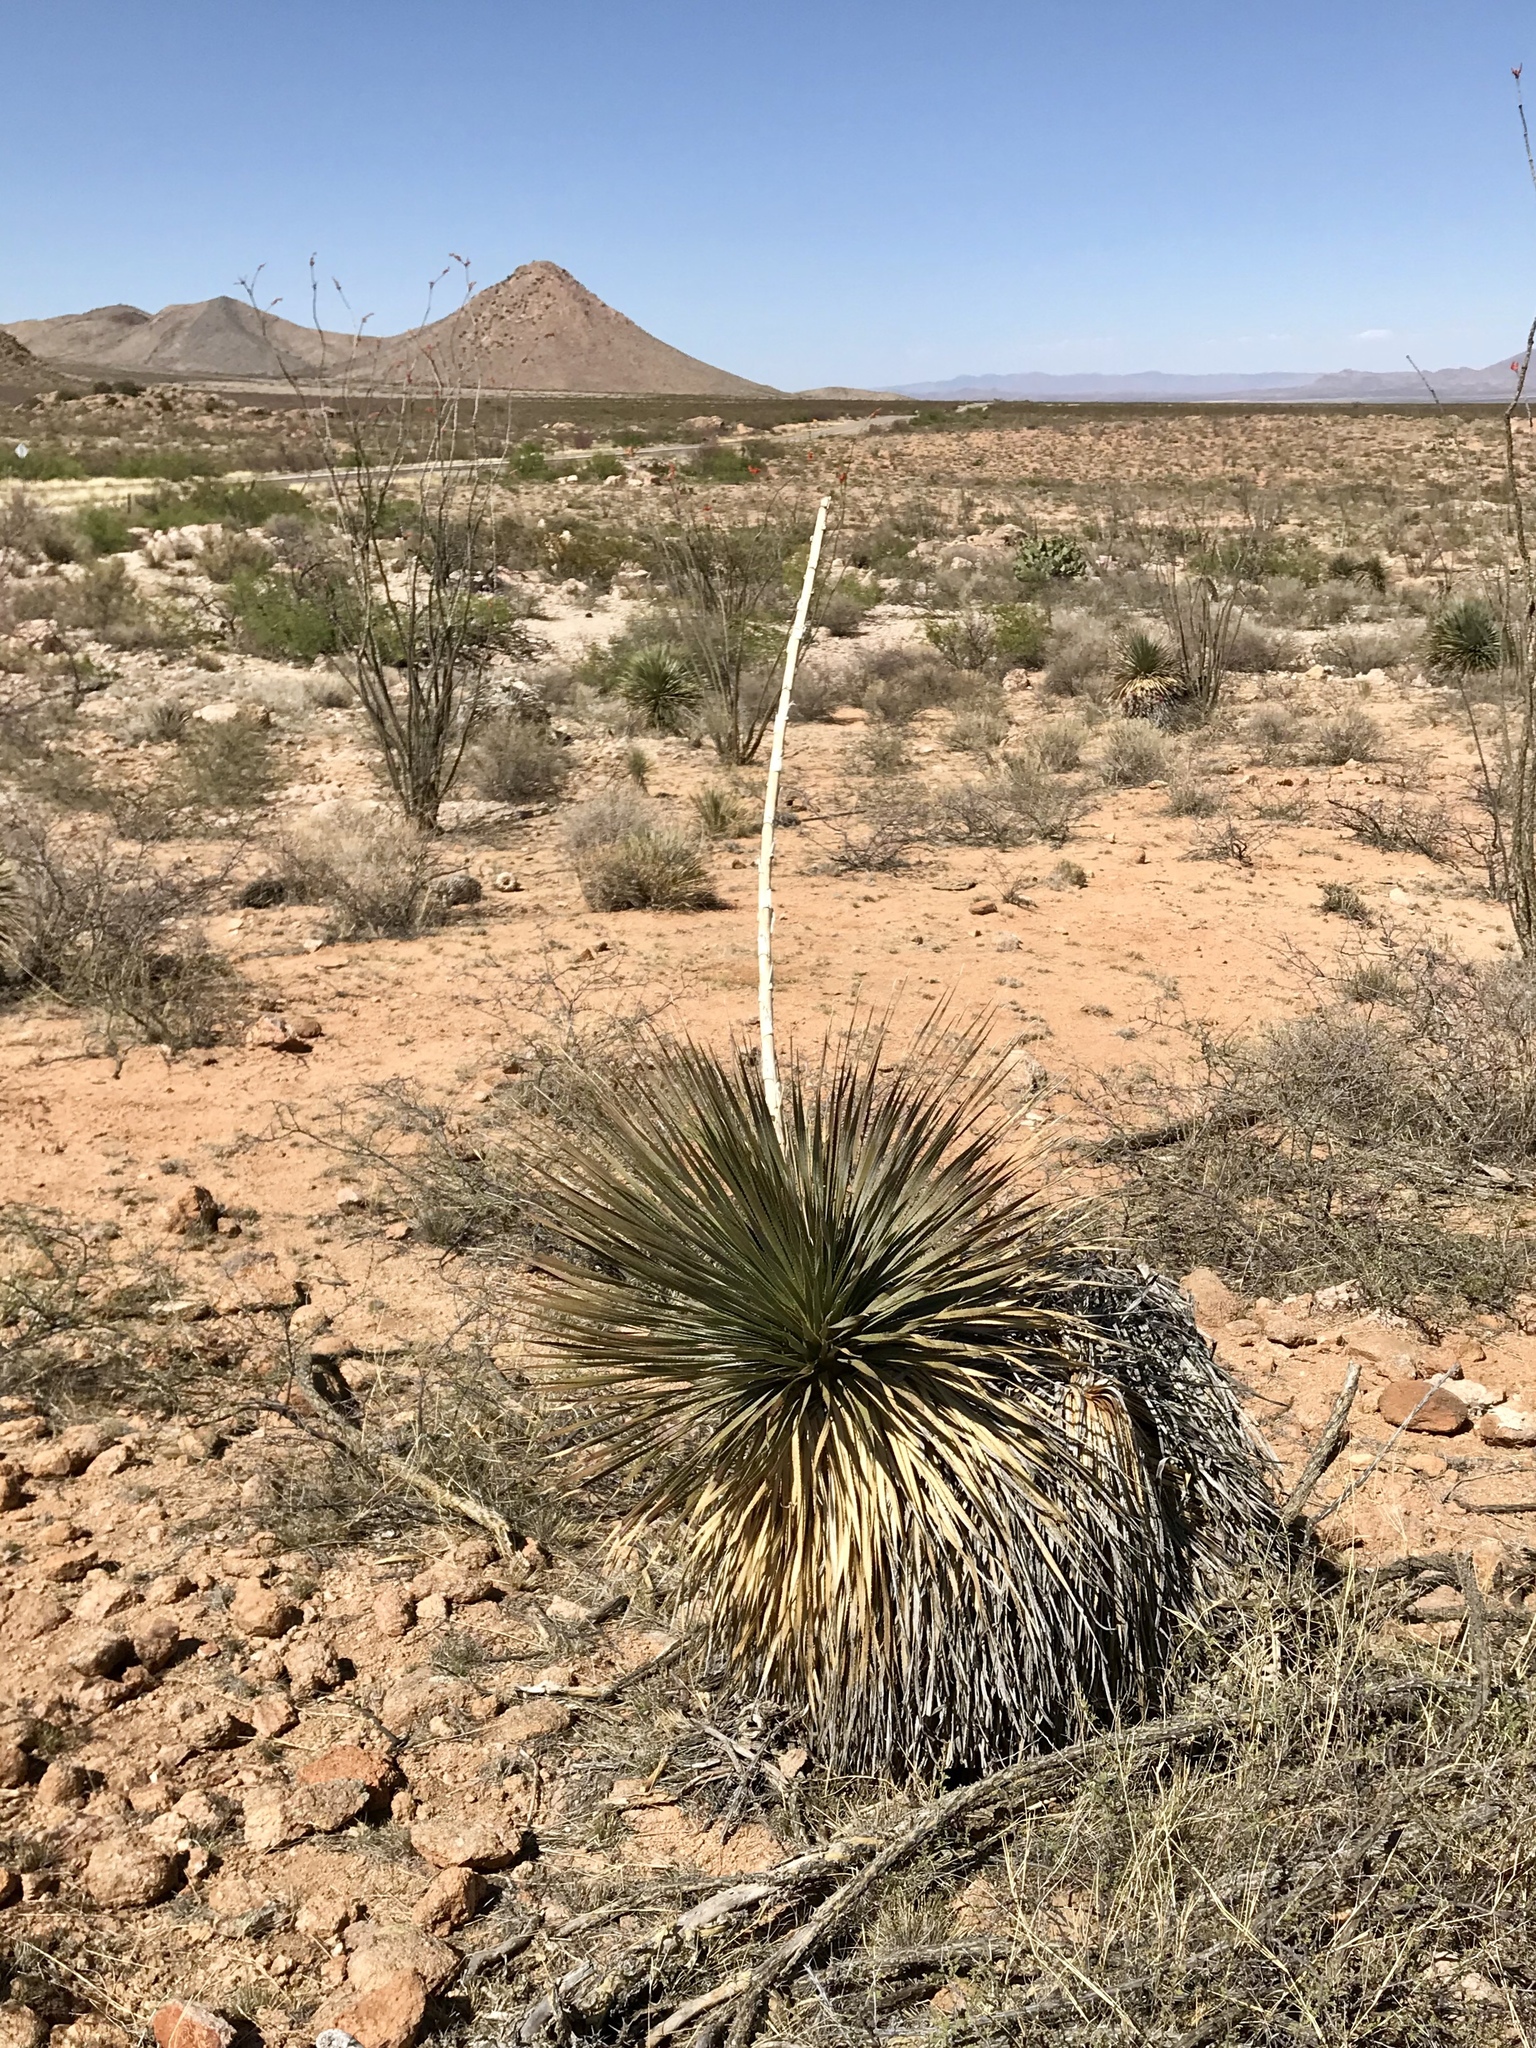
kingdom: Plantae
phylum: Tracheophyta
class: Liliopsida
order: Asparagales
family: Asparagaceae
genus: Dasylirion
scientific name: Dasylirion wheeleri
